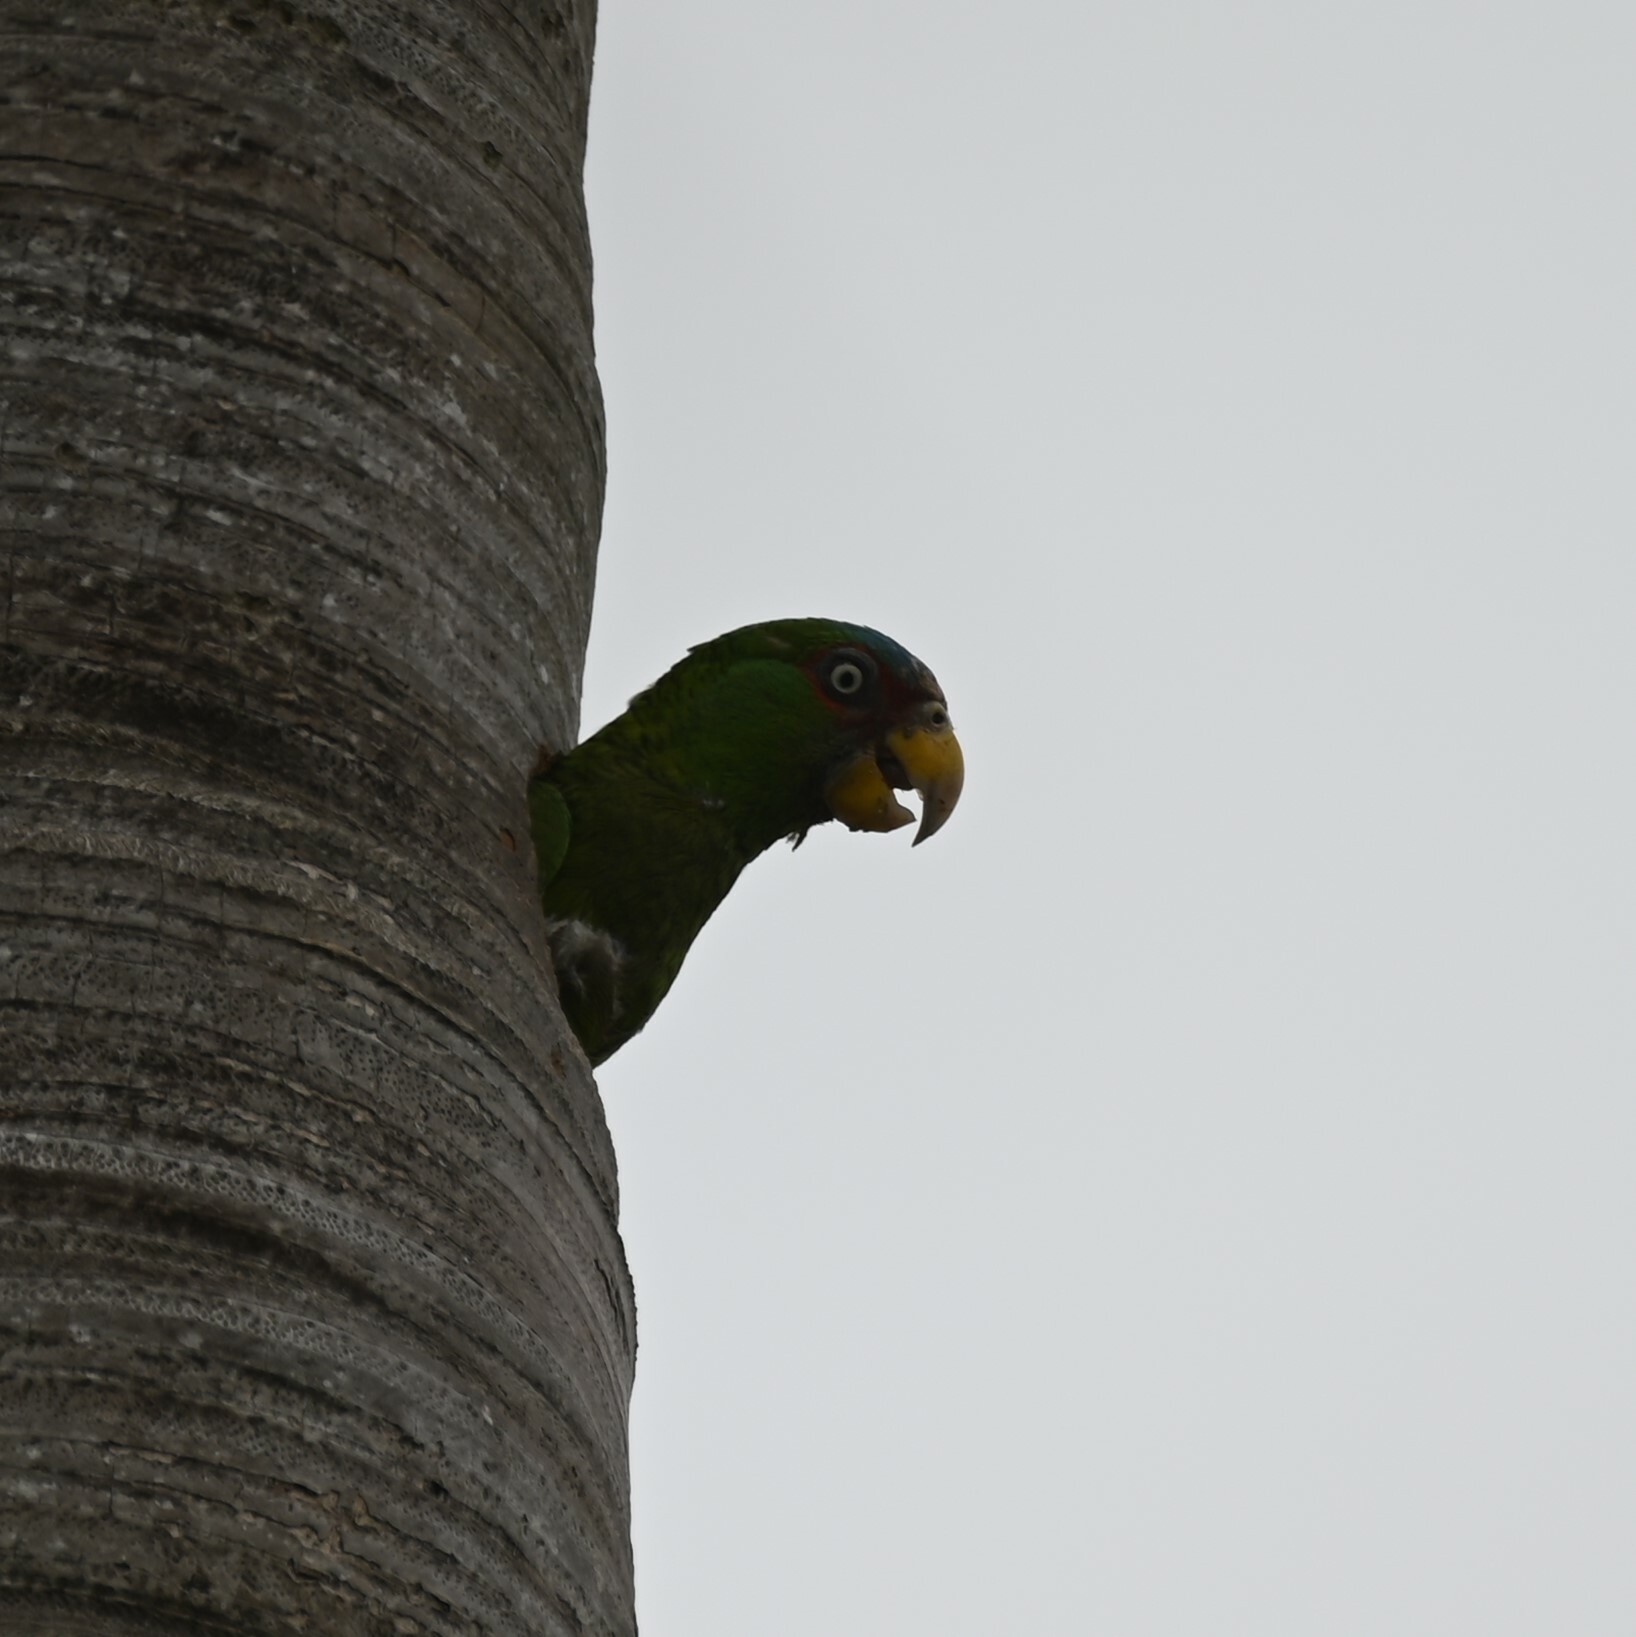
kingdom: Animalia
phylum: Chordata
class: Aves
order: Psittaciformes
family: Psittacidae
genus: Amazona
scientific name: Amazona albifrons
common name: White-fronted amazon
